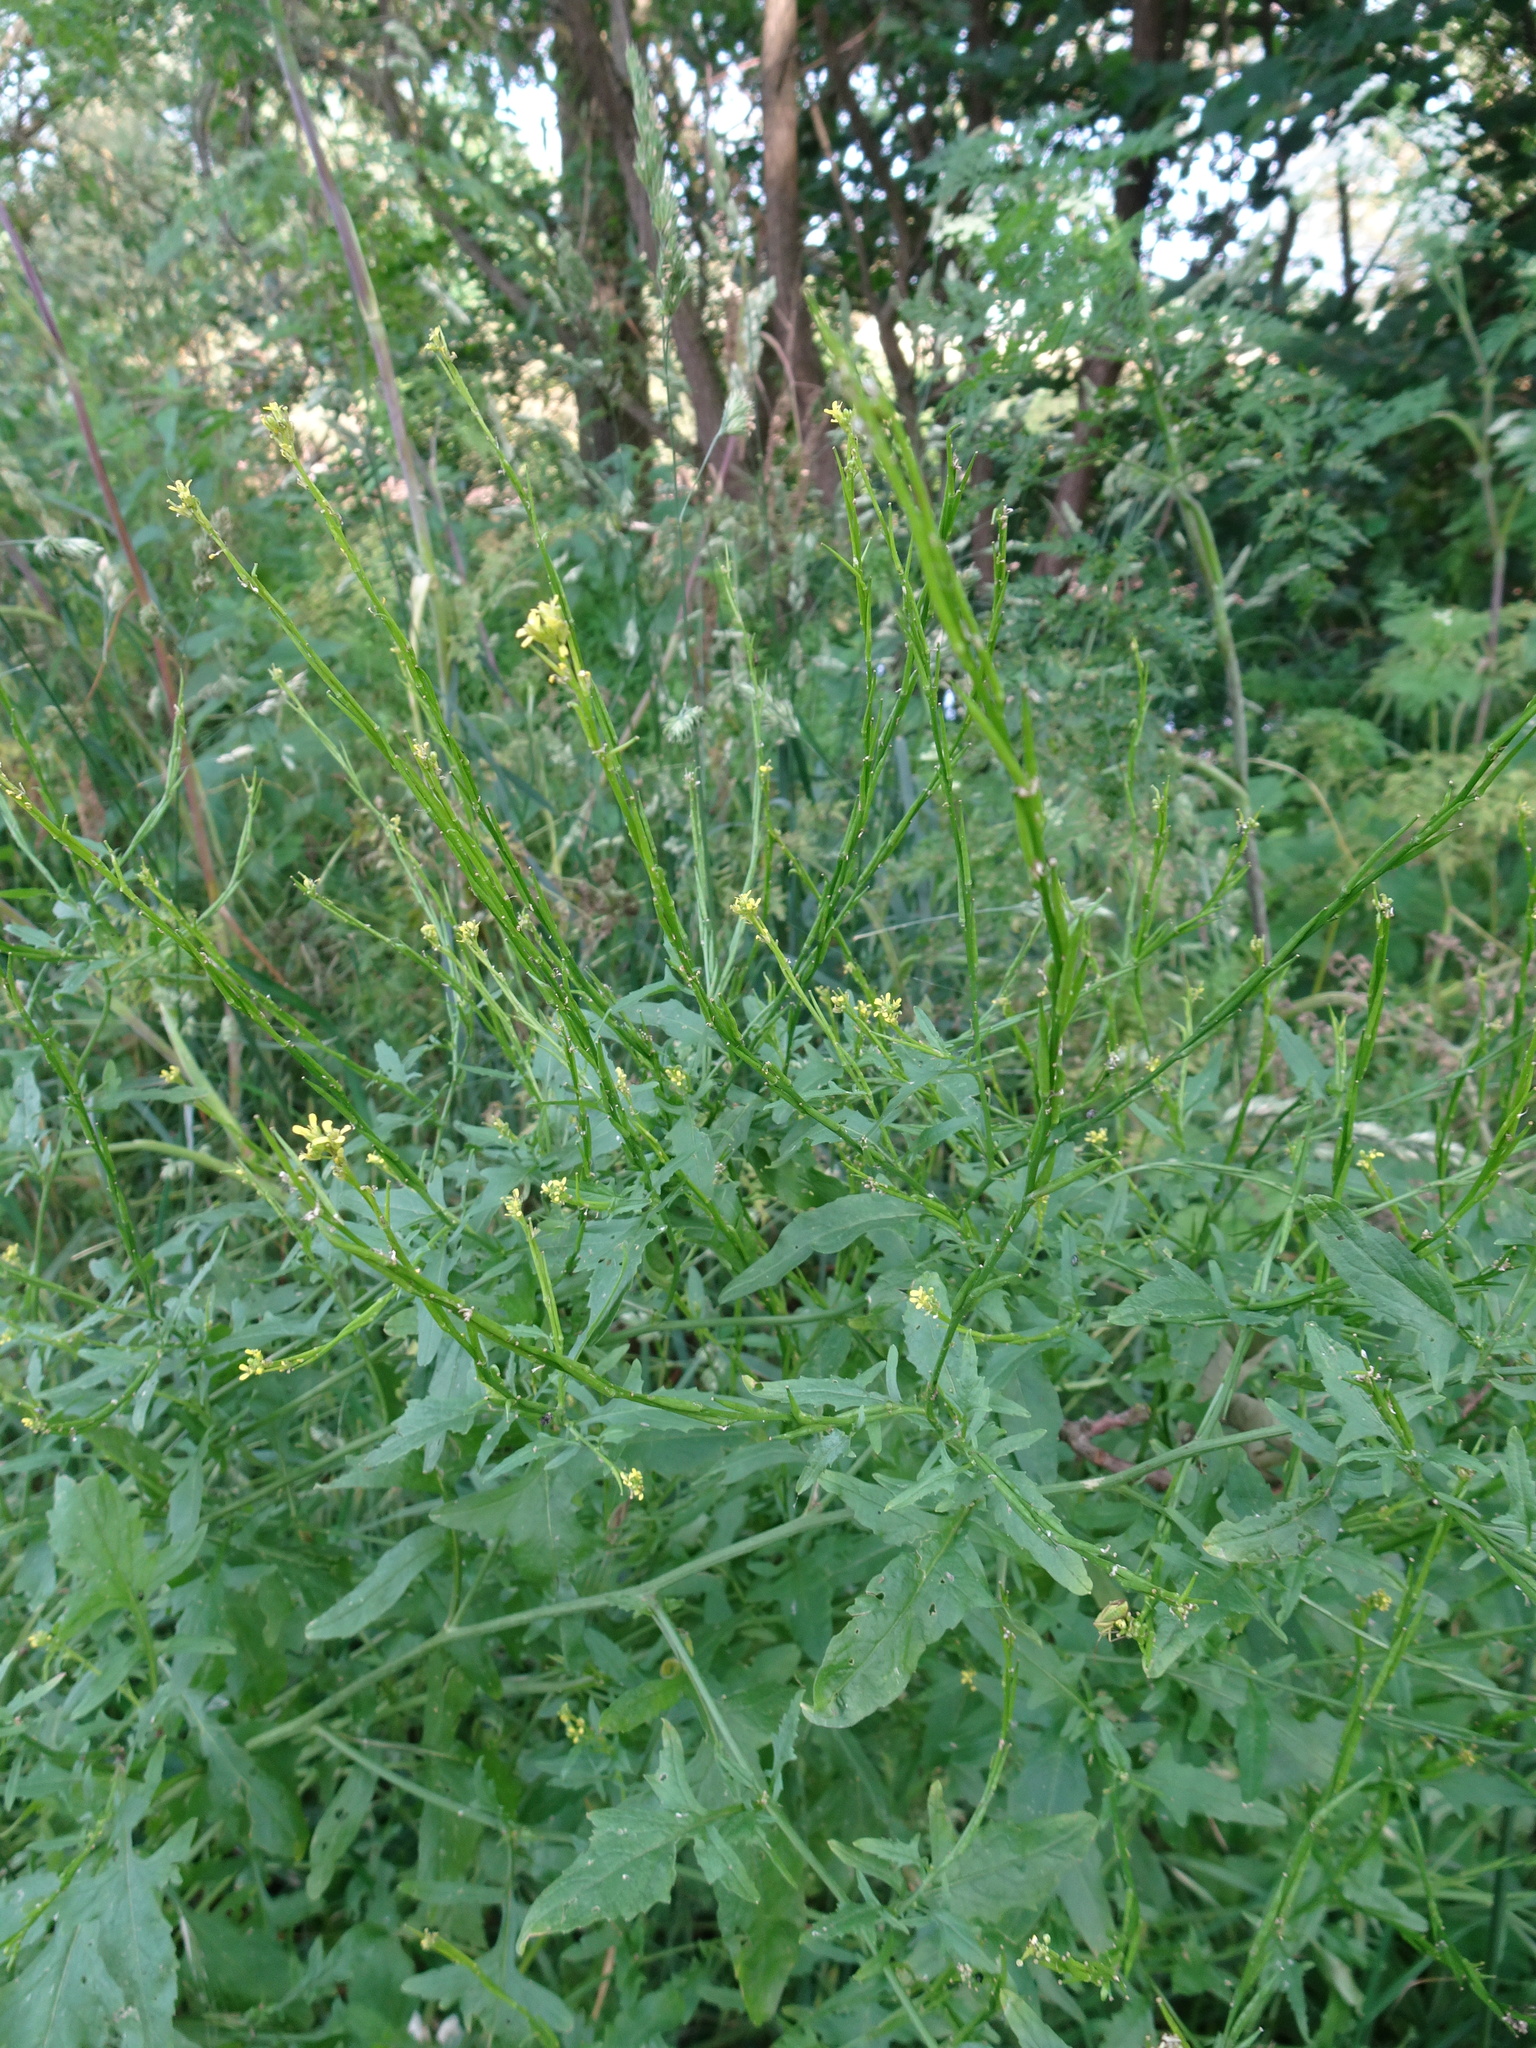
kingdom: Plantae
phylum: Tracheophyta
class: Magnoliopsida
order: Brassicales
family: Brassicaceae
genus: Sisymbrium
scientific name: Sisymbrium officinale
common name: Hedge mustard
